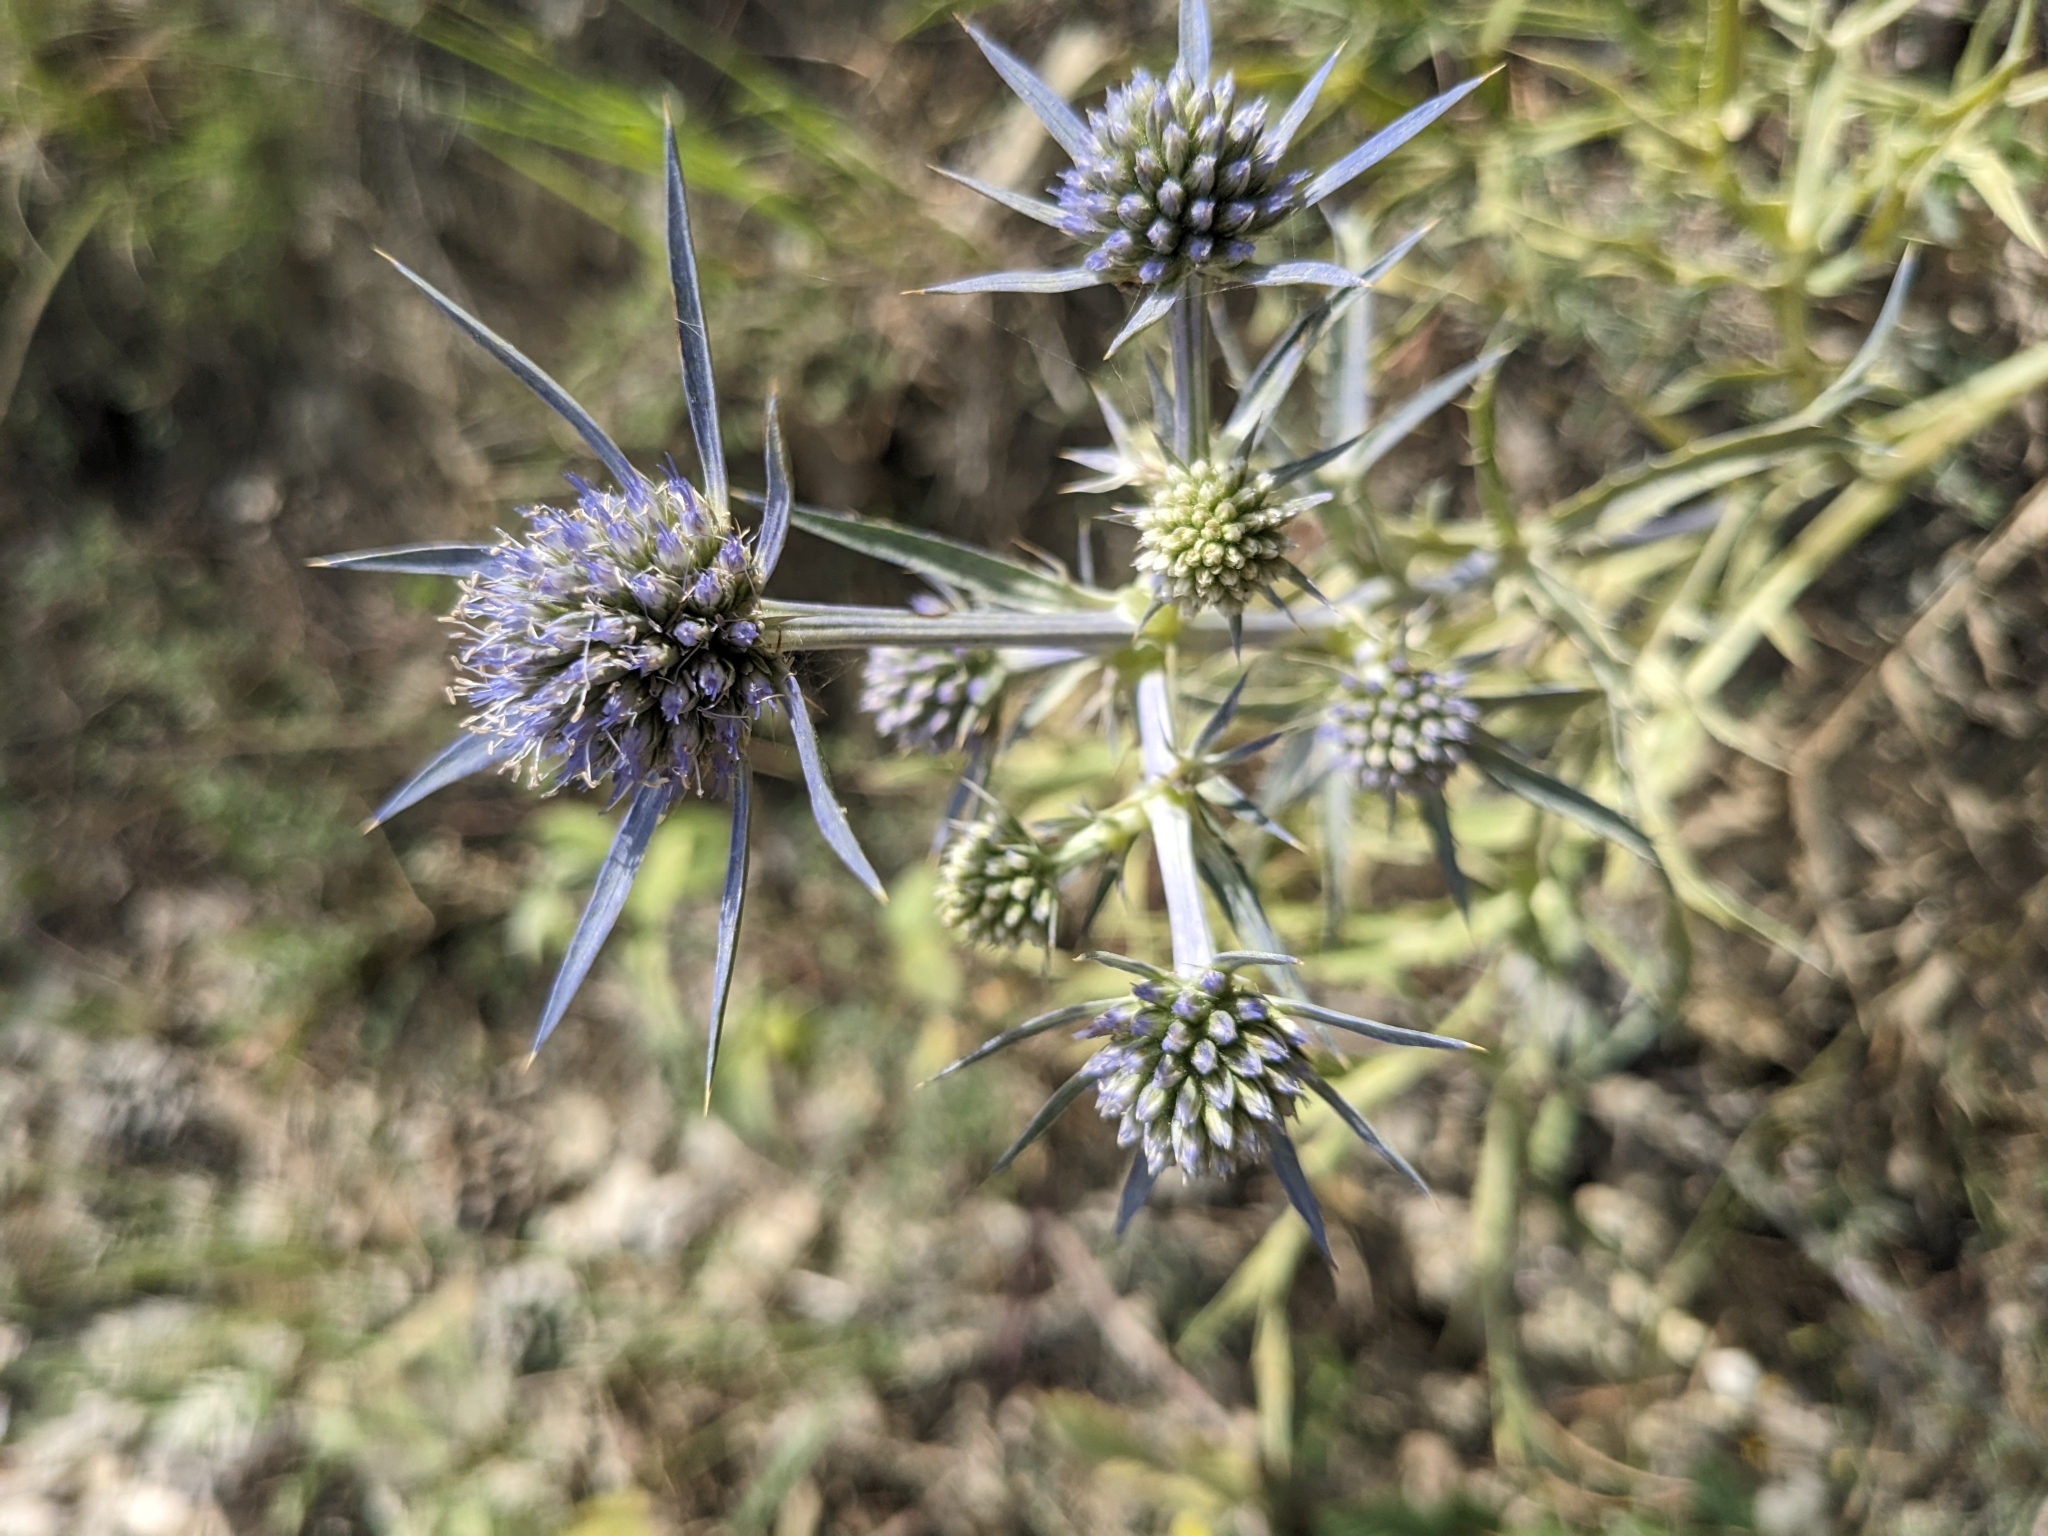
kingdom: Plantae
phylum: Tracheophyta
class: Magnoliopsida
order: Apiales
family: Apiaceae
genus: Eryngium
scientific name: Eryngium amethystinum
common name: Amethyst eryngo
